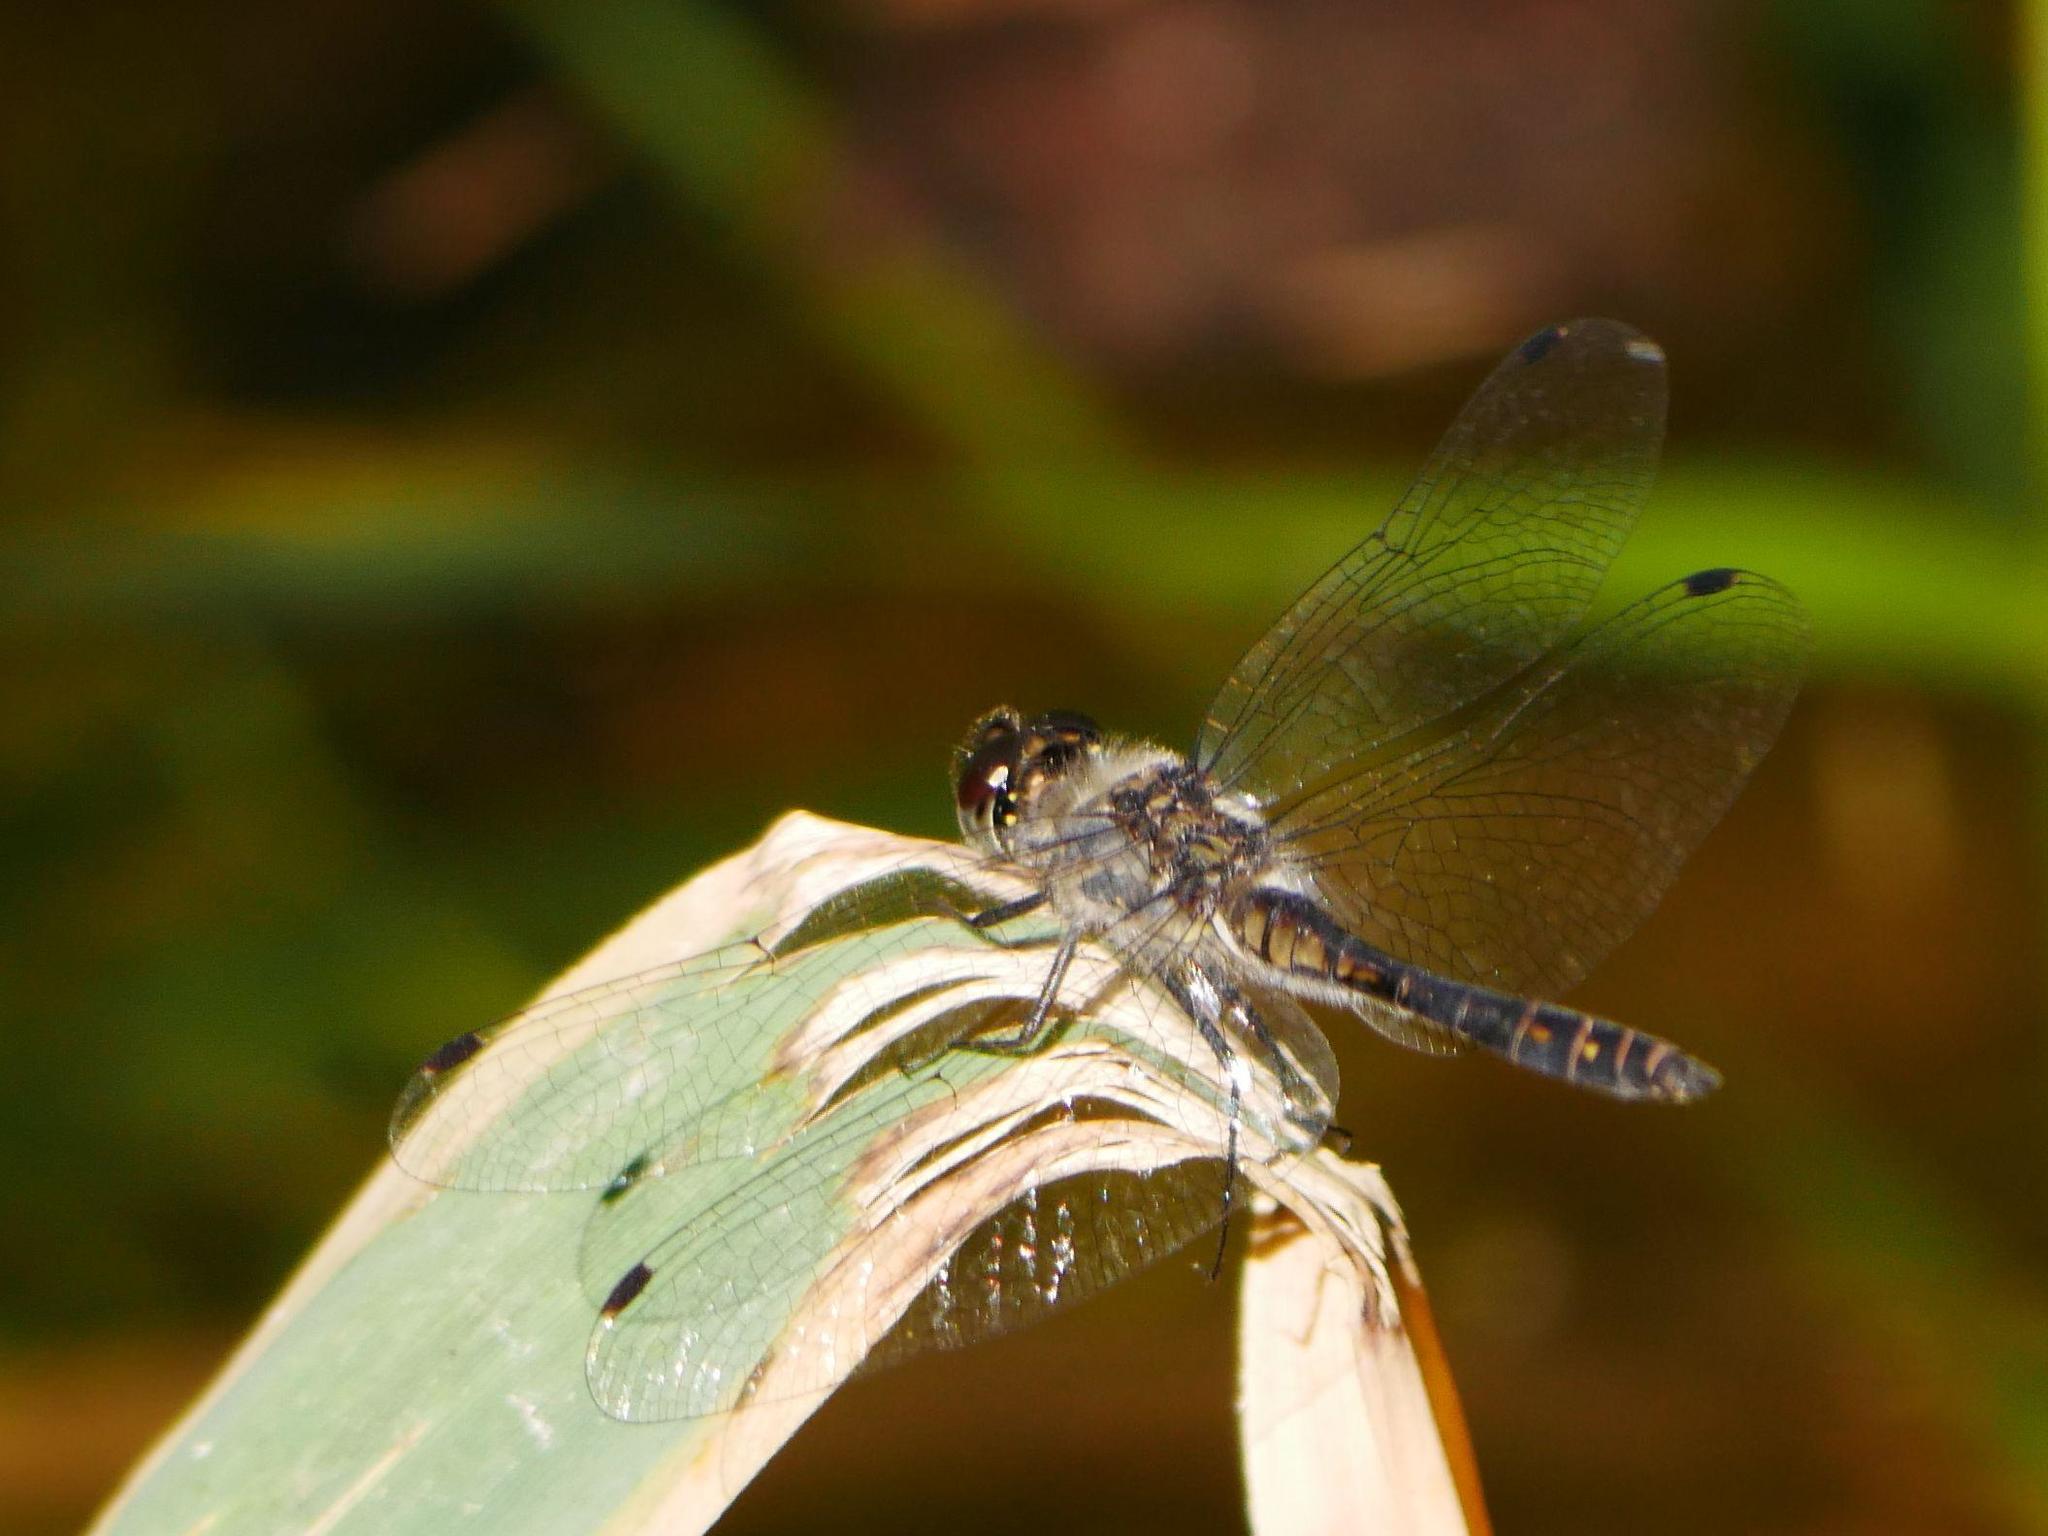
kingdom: Animalia
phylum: Arthropoda
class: Insecta
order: Odonata
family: Libellulidae
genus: Sympetrum
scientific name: Sympetrum danae
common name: Black darter
